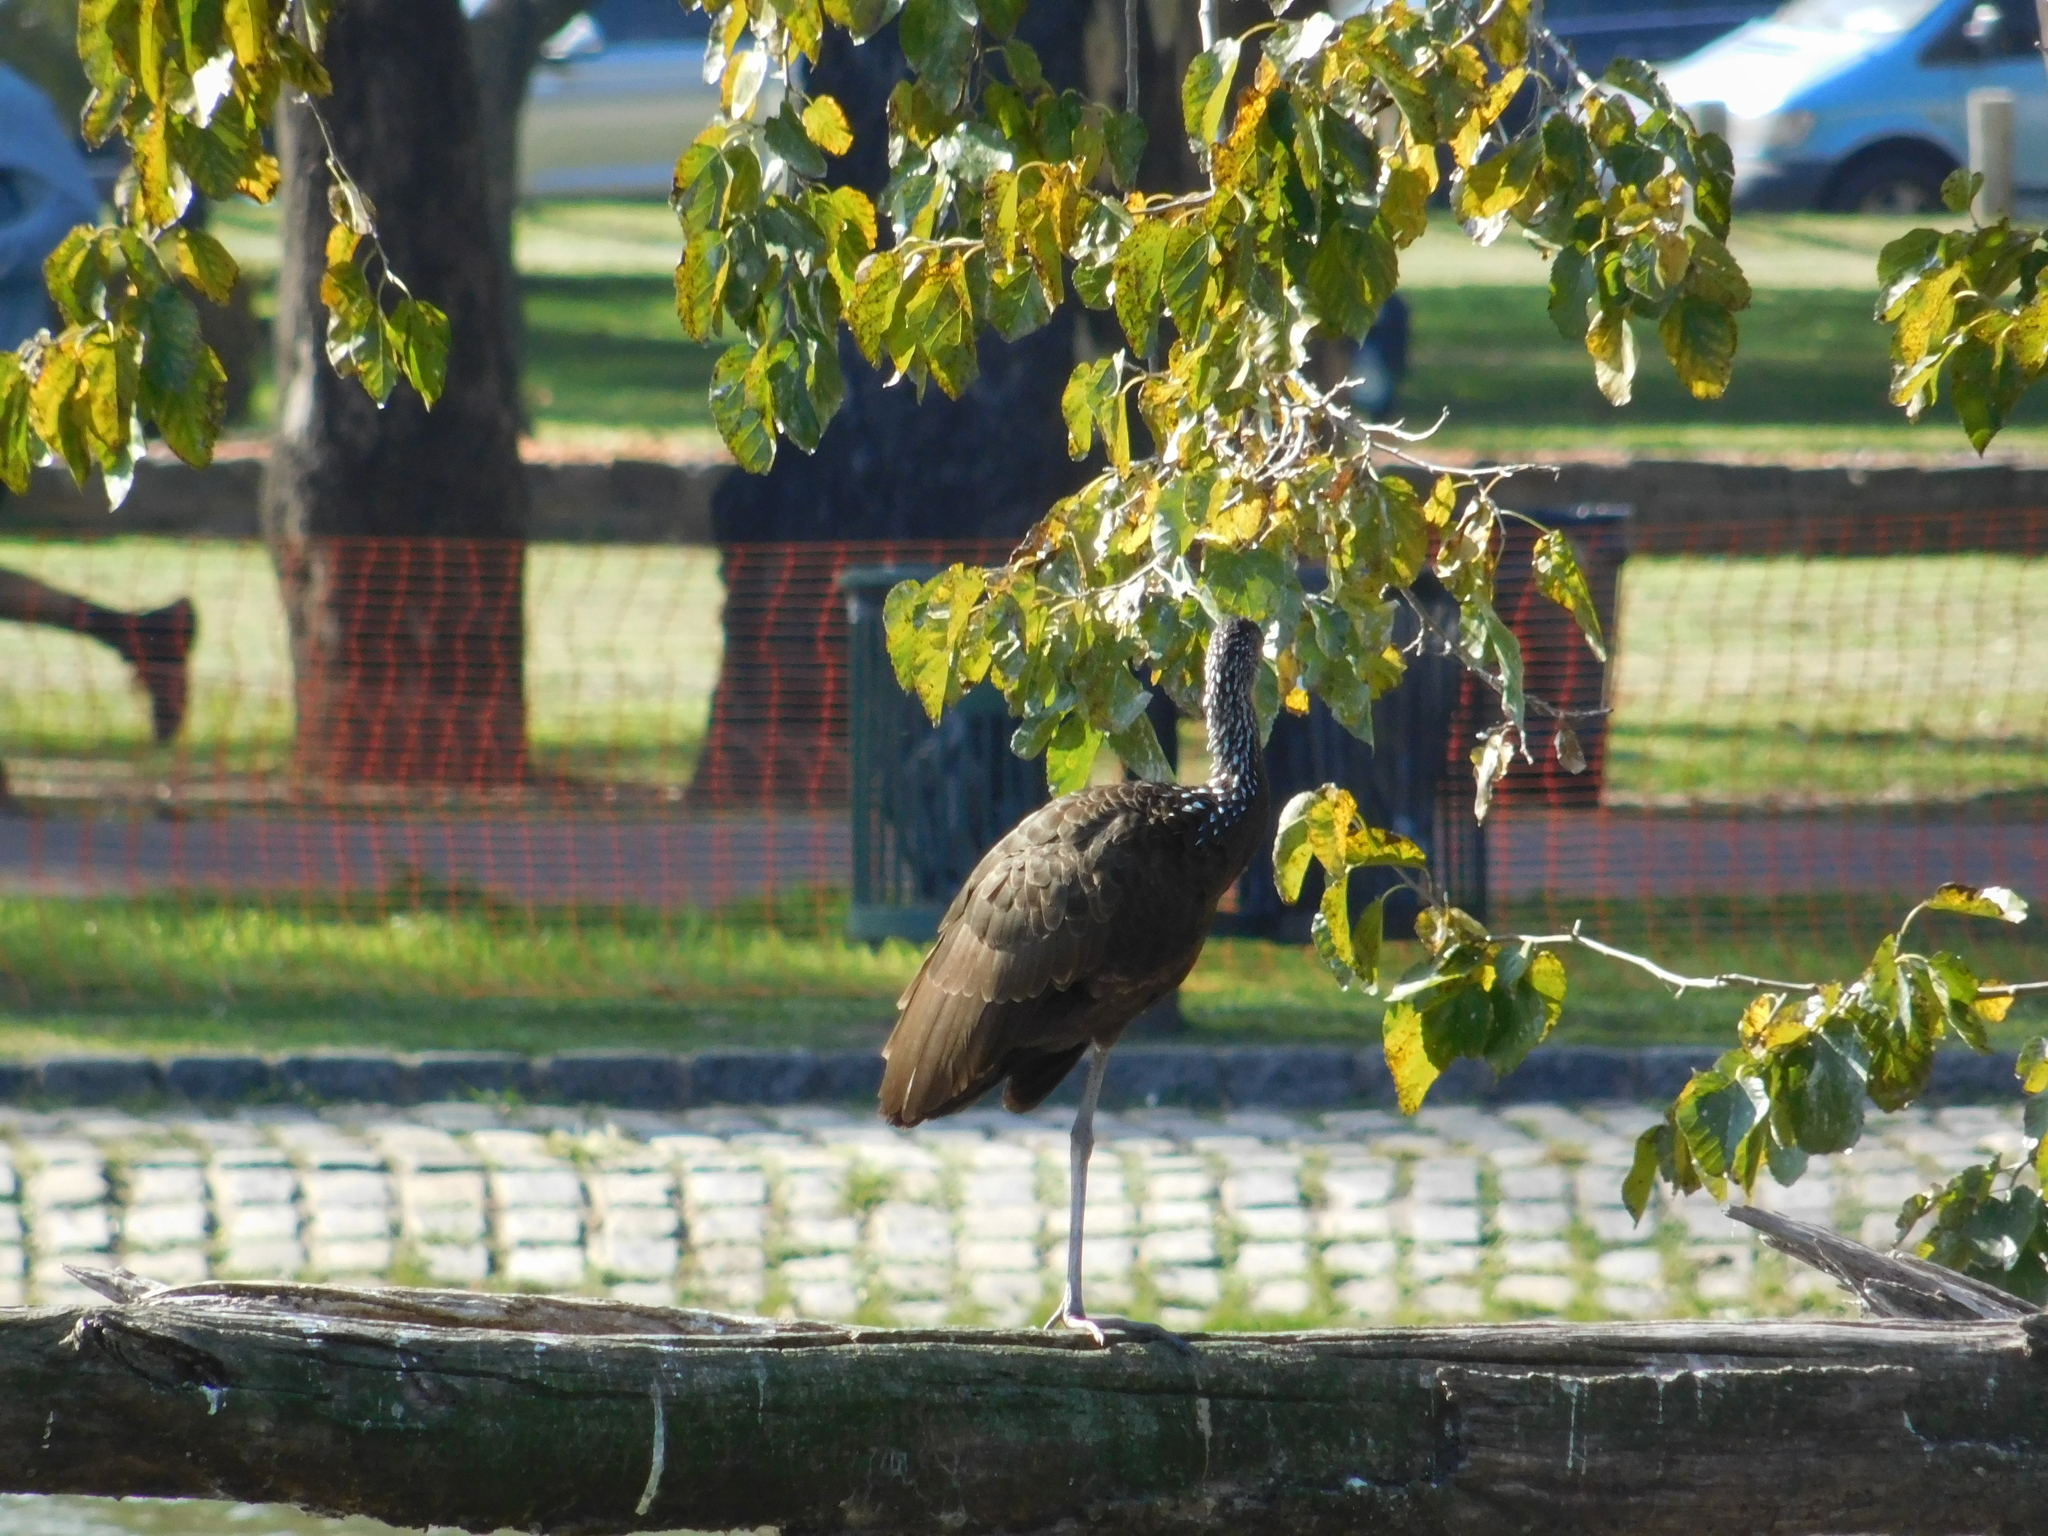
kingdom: Animalia
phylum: Chordata
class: Aves
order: Gruiformes
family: Aramidae
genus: Aramus
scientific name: Aramus guarauna
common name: Limpkin
